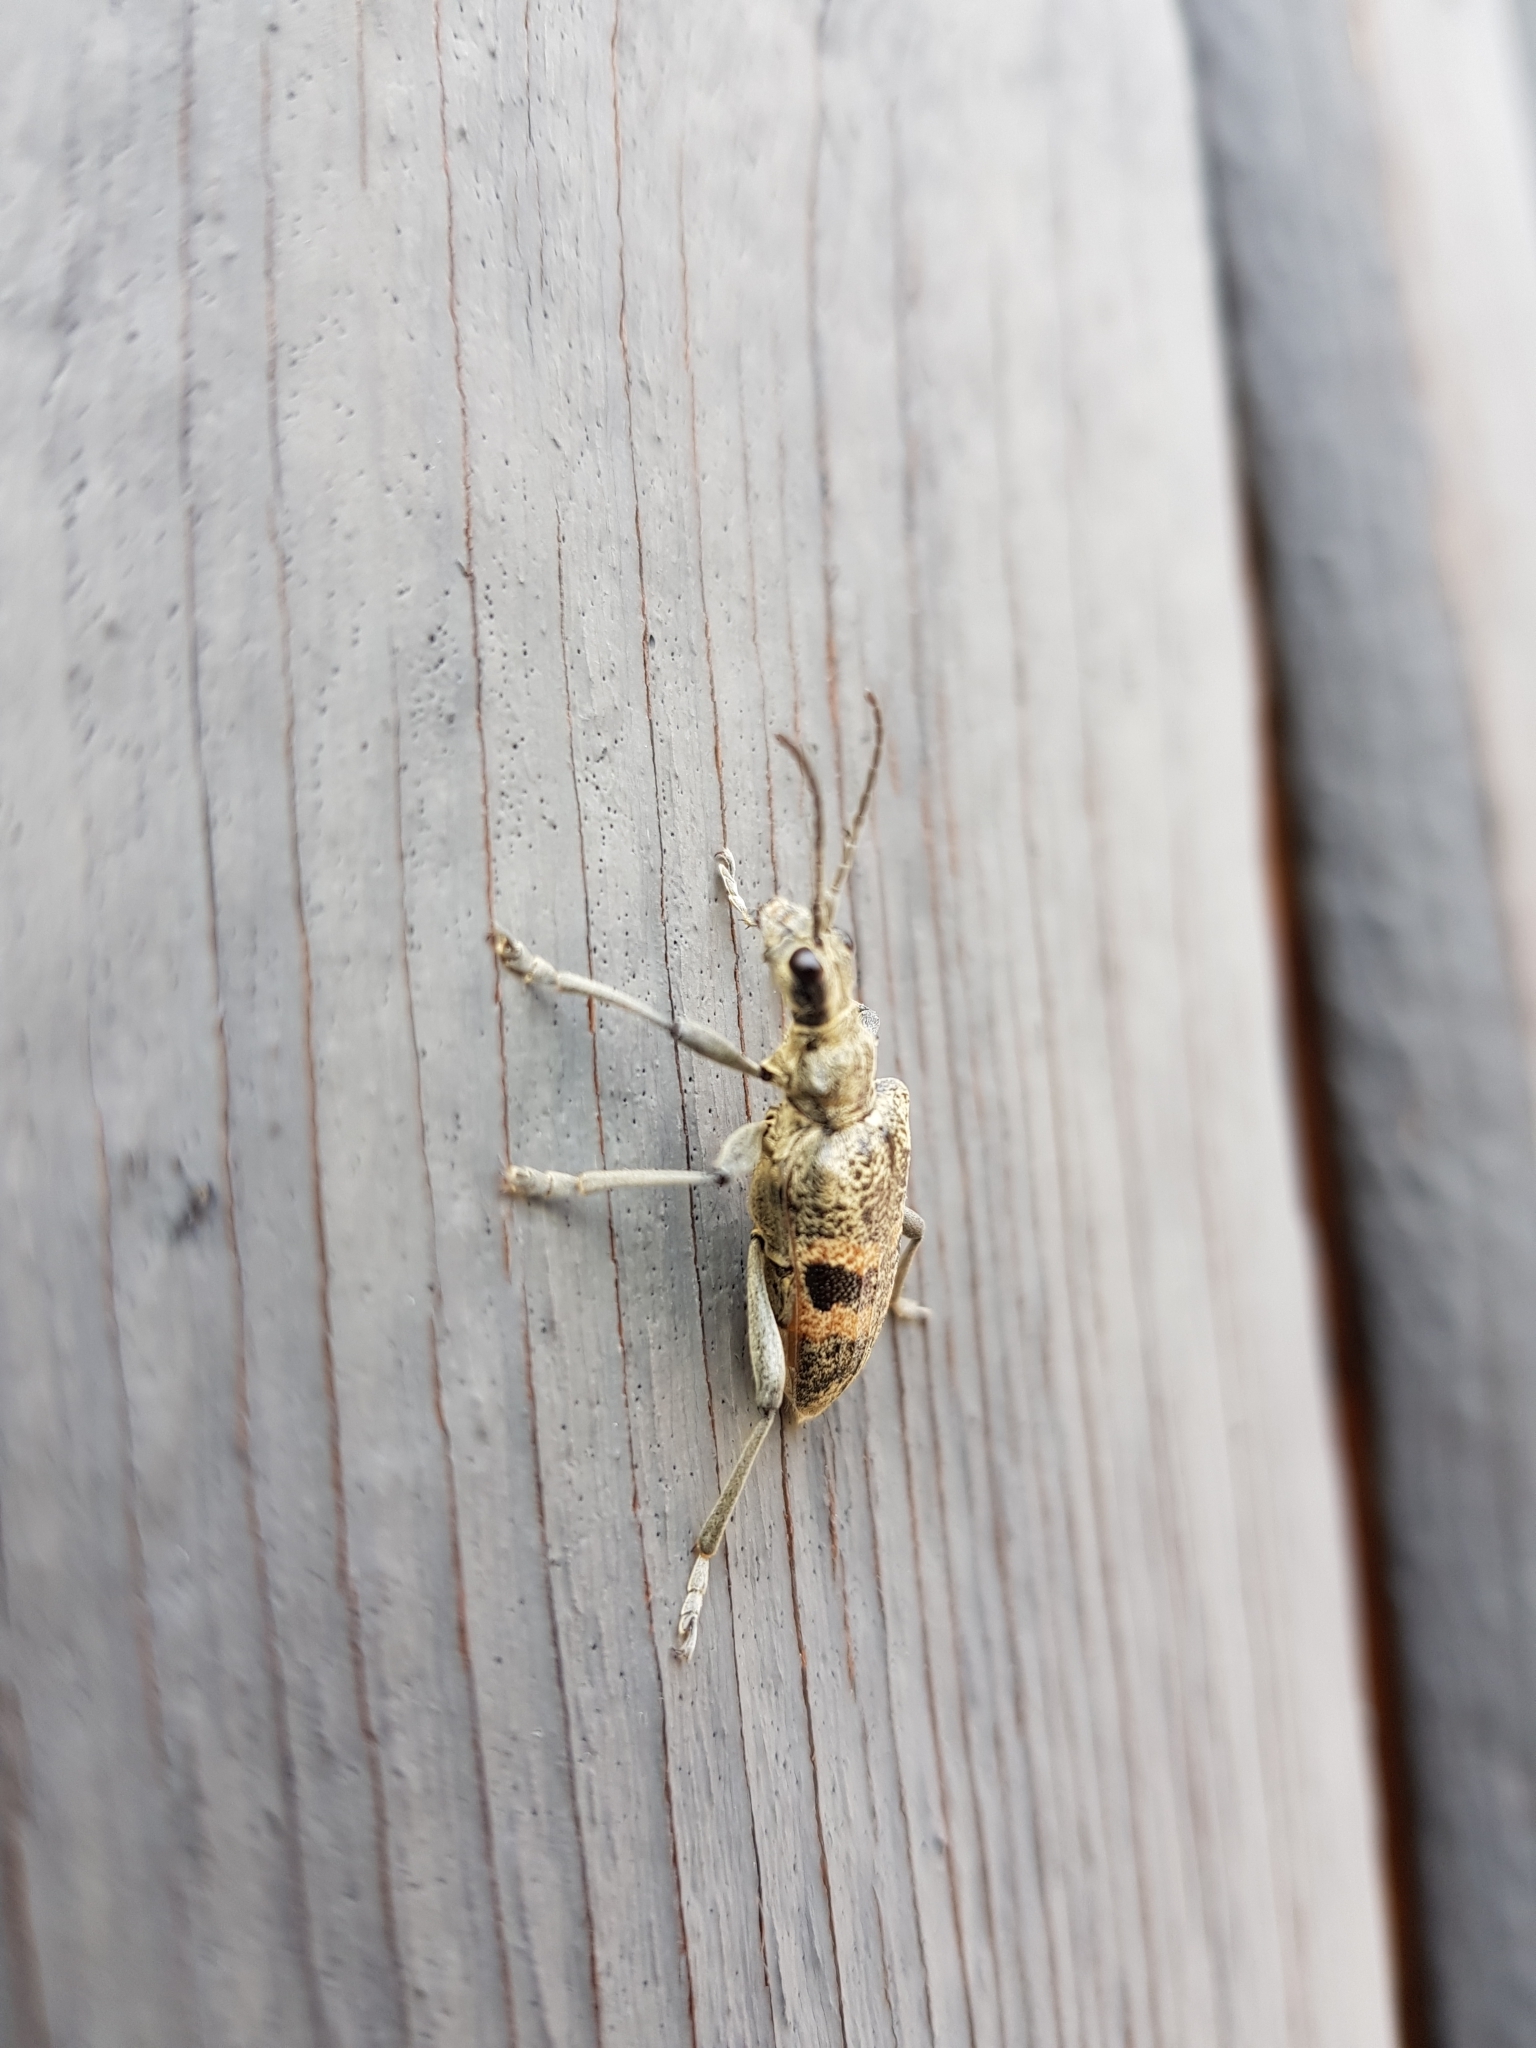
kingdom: Animalia
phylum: Arthropoda
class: Insecta
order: Coleoptera
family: Cerambycidae
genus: Rhagium
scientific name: Rhagium mordax
